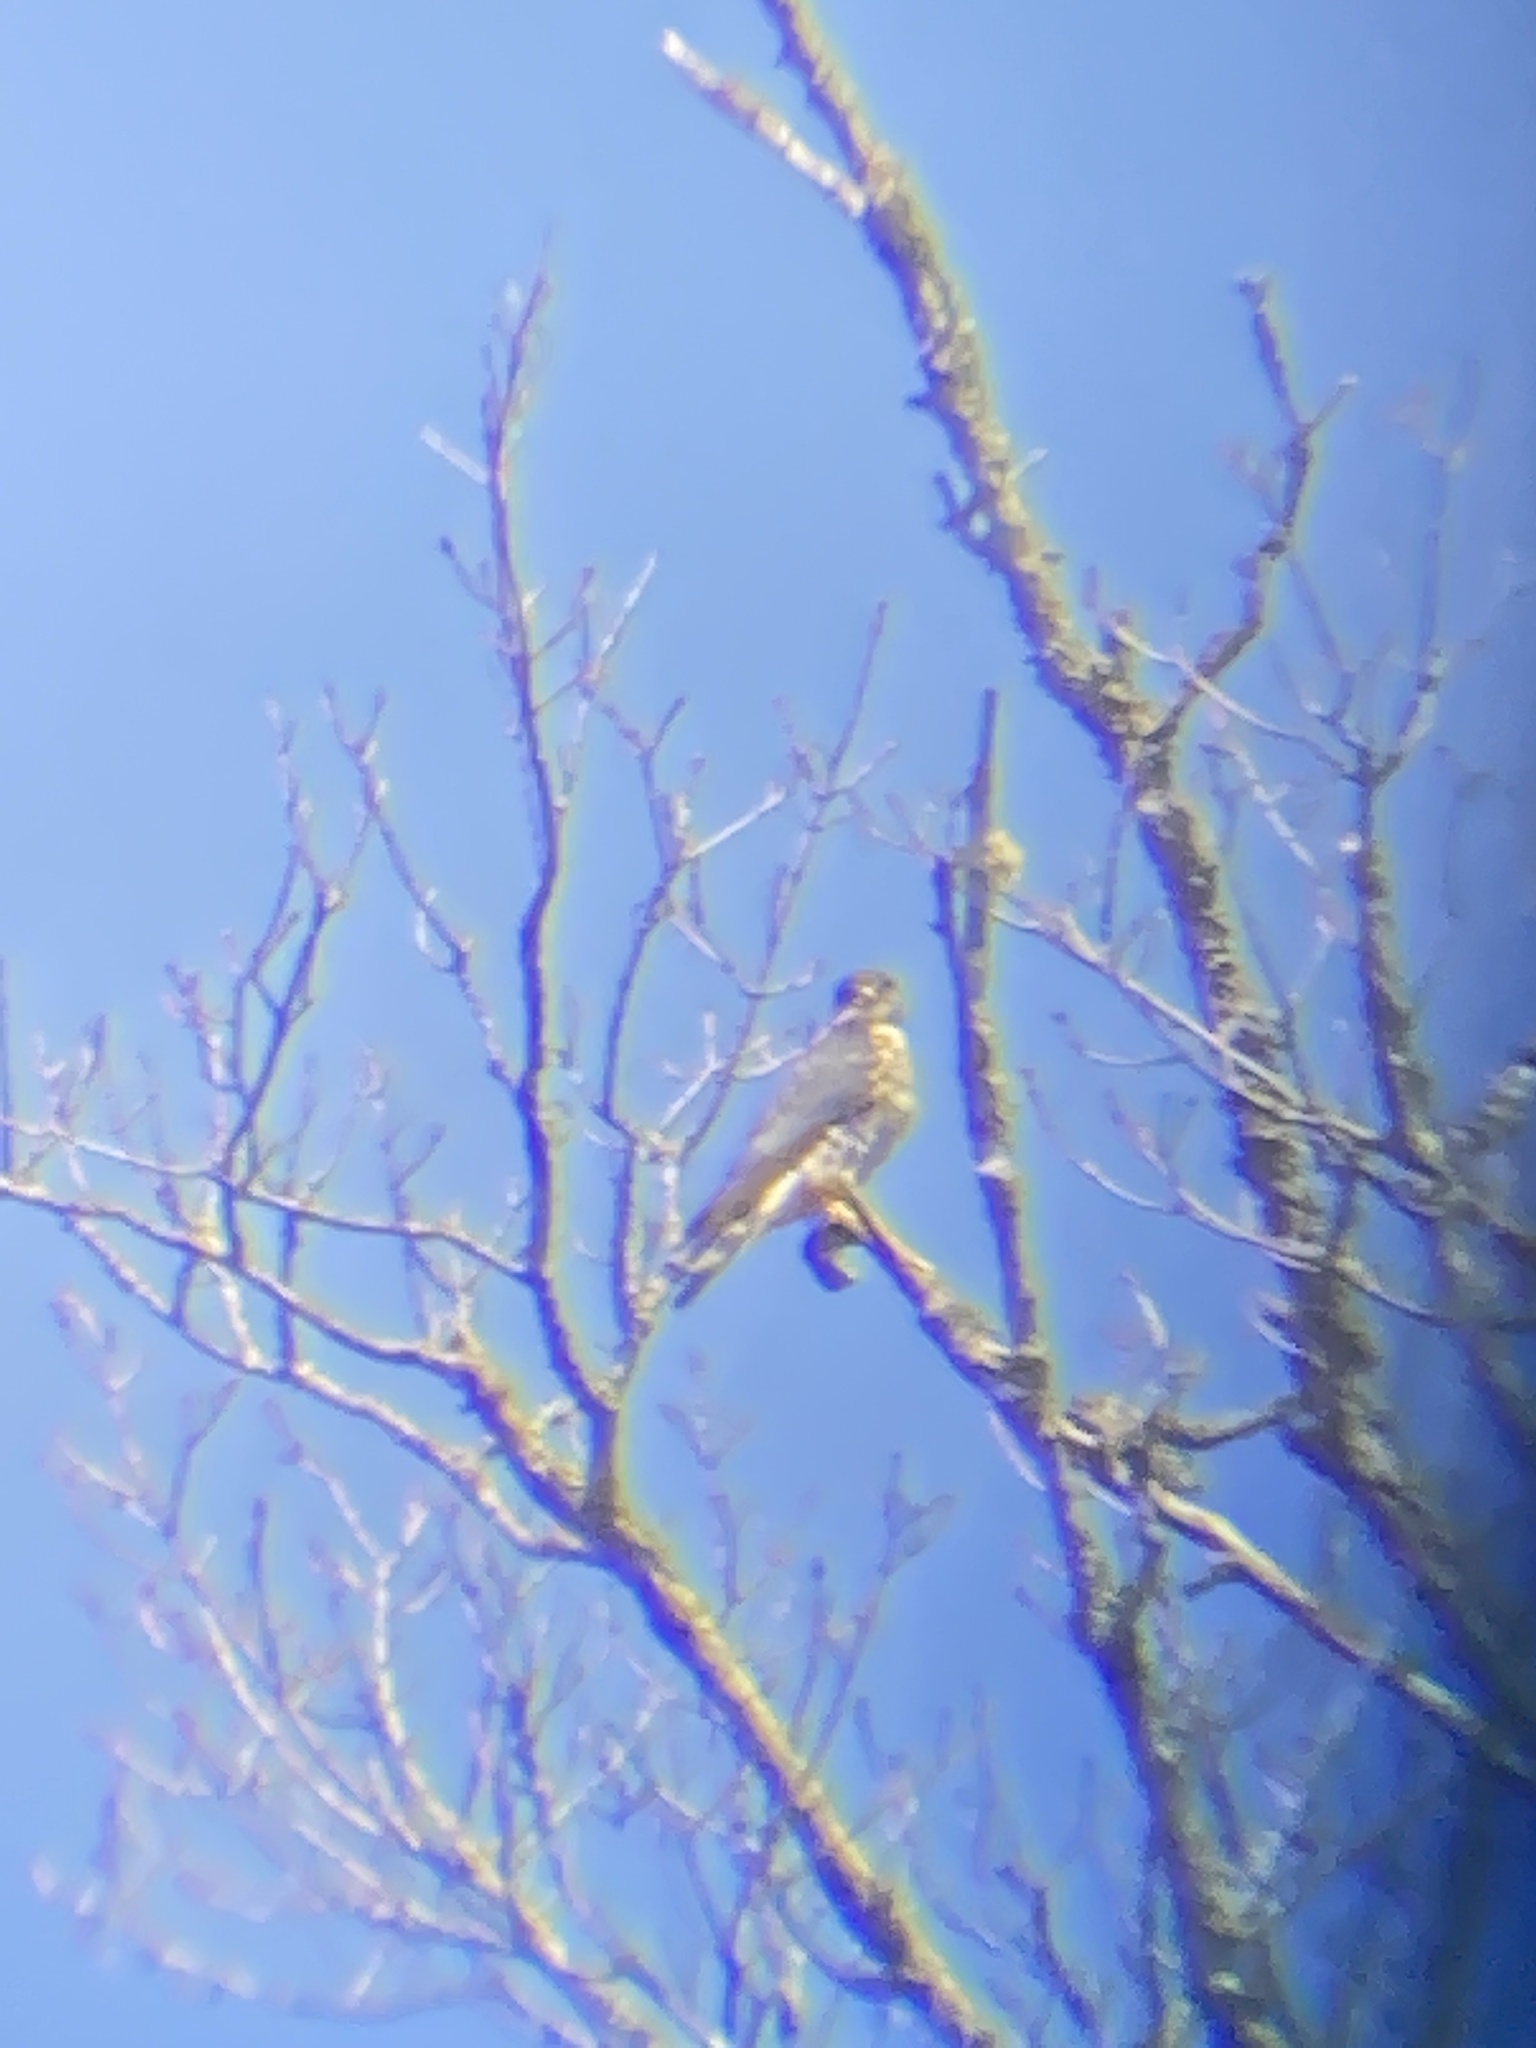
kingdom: Animalia
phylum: Chordata
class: Aves
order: Falconiformes
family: Falconidae
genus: Falco
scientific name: Falco columbarius
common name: Merlin
